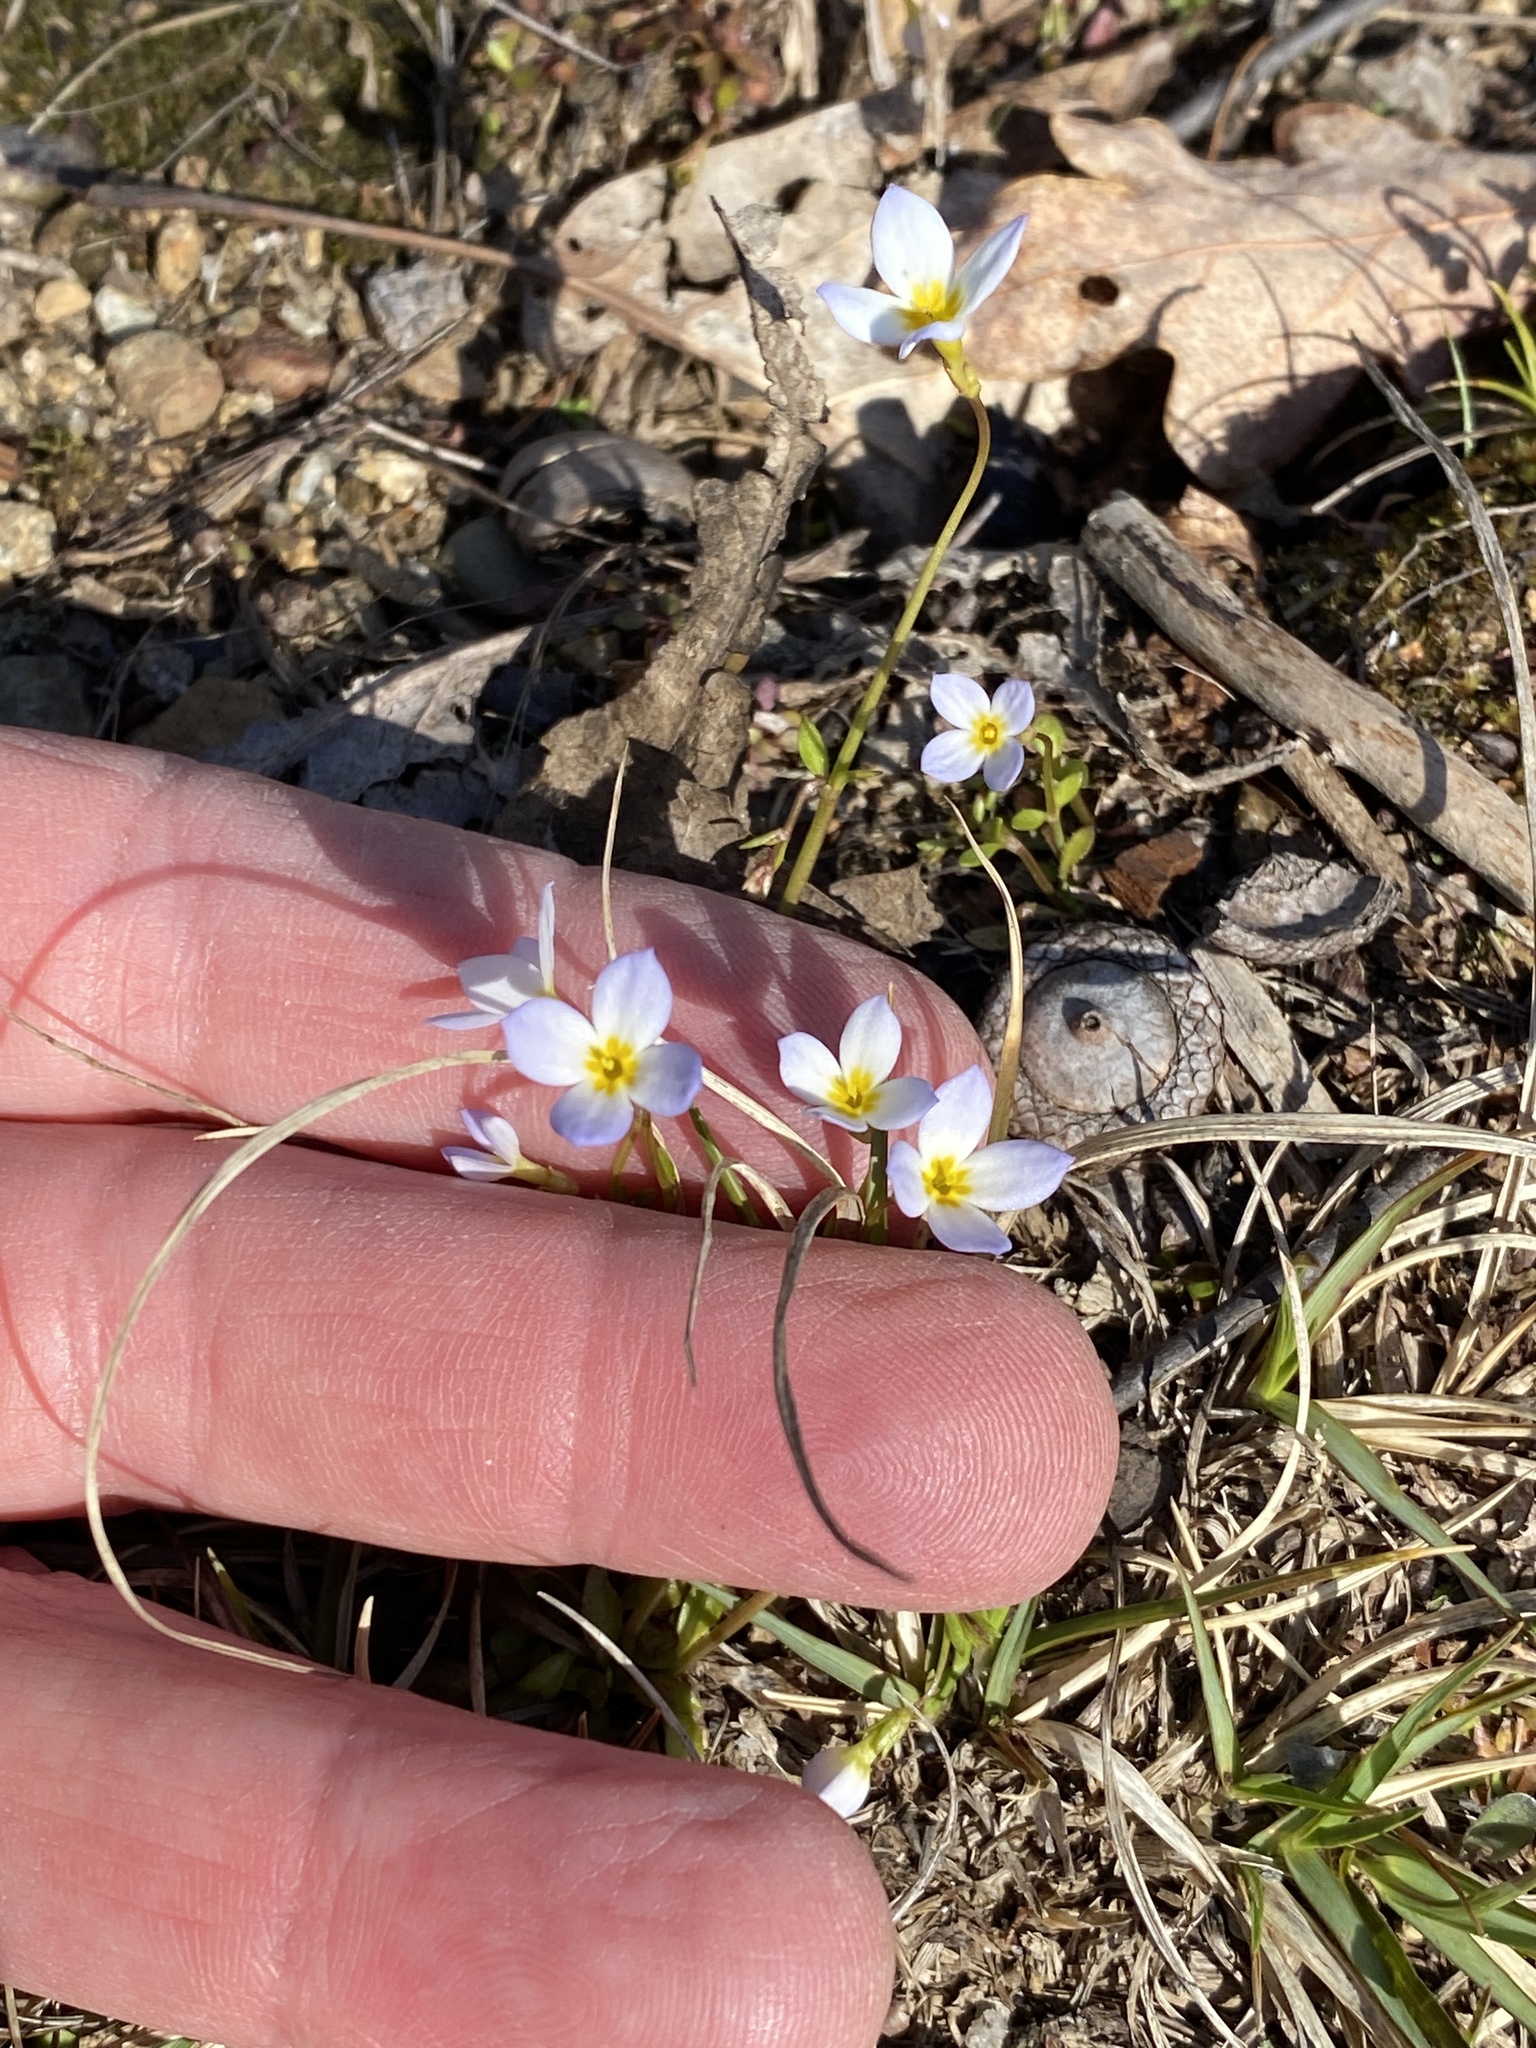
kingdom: Plantae
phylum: Tracheophyta
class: Magnoliopsida
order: Gentianales
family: Rubiaceae
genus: Houstonia
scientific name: Houstonia caerulea
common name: Bluets
